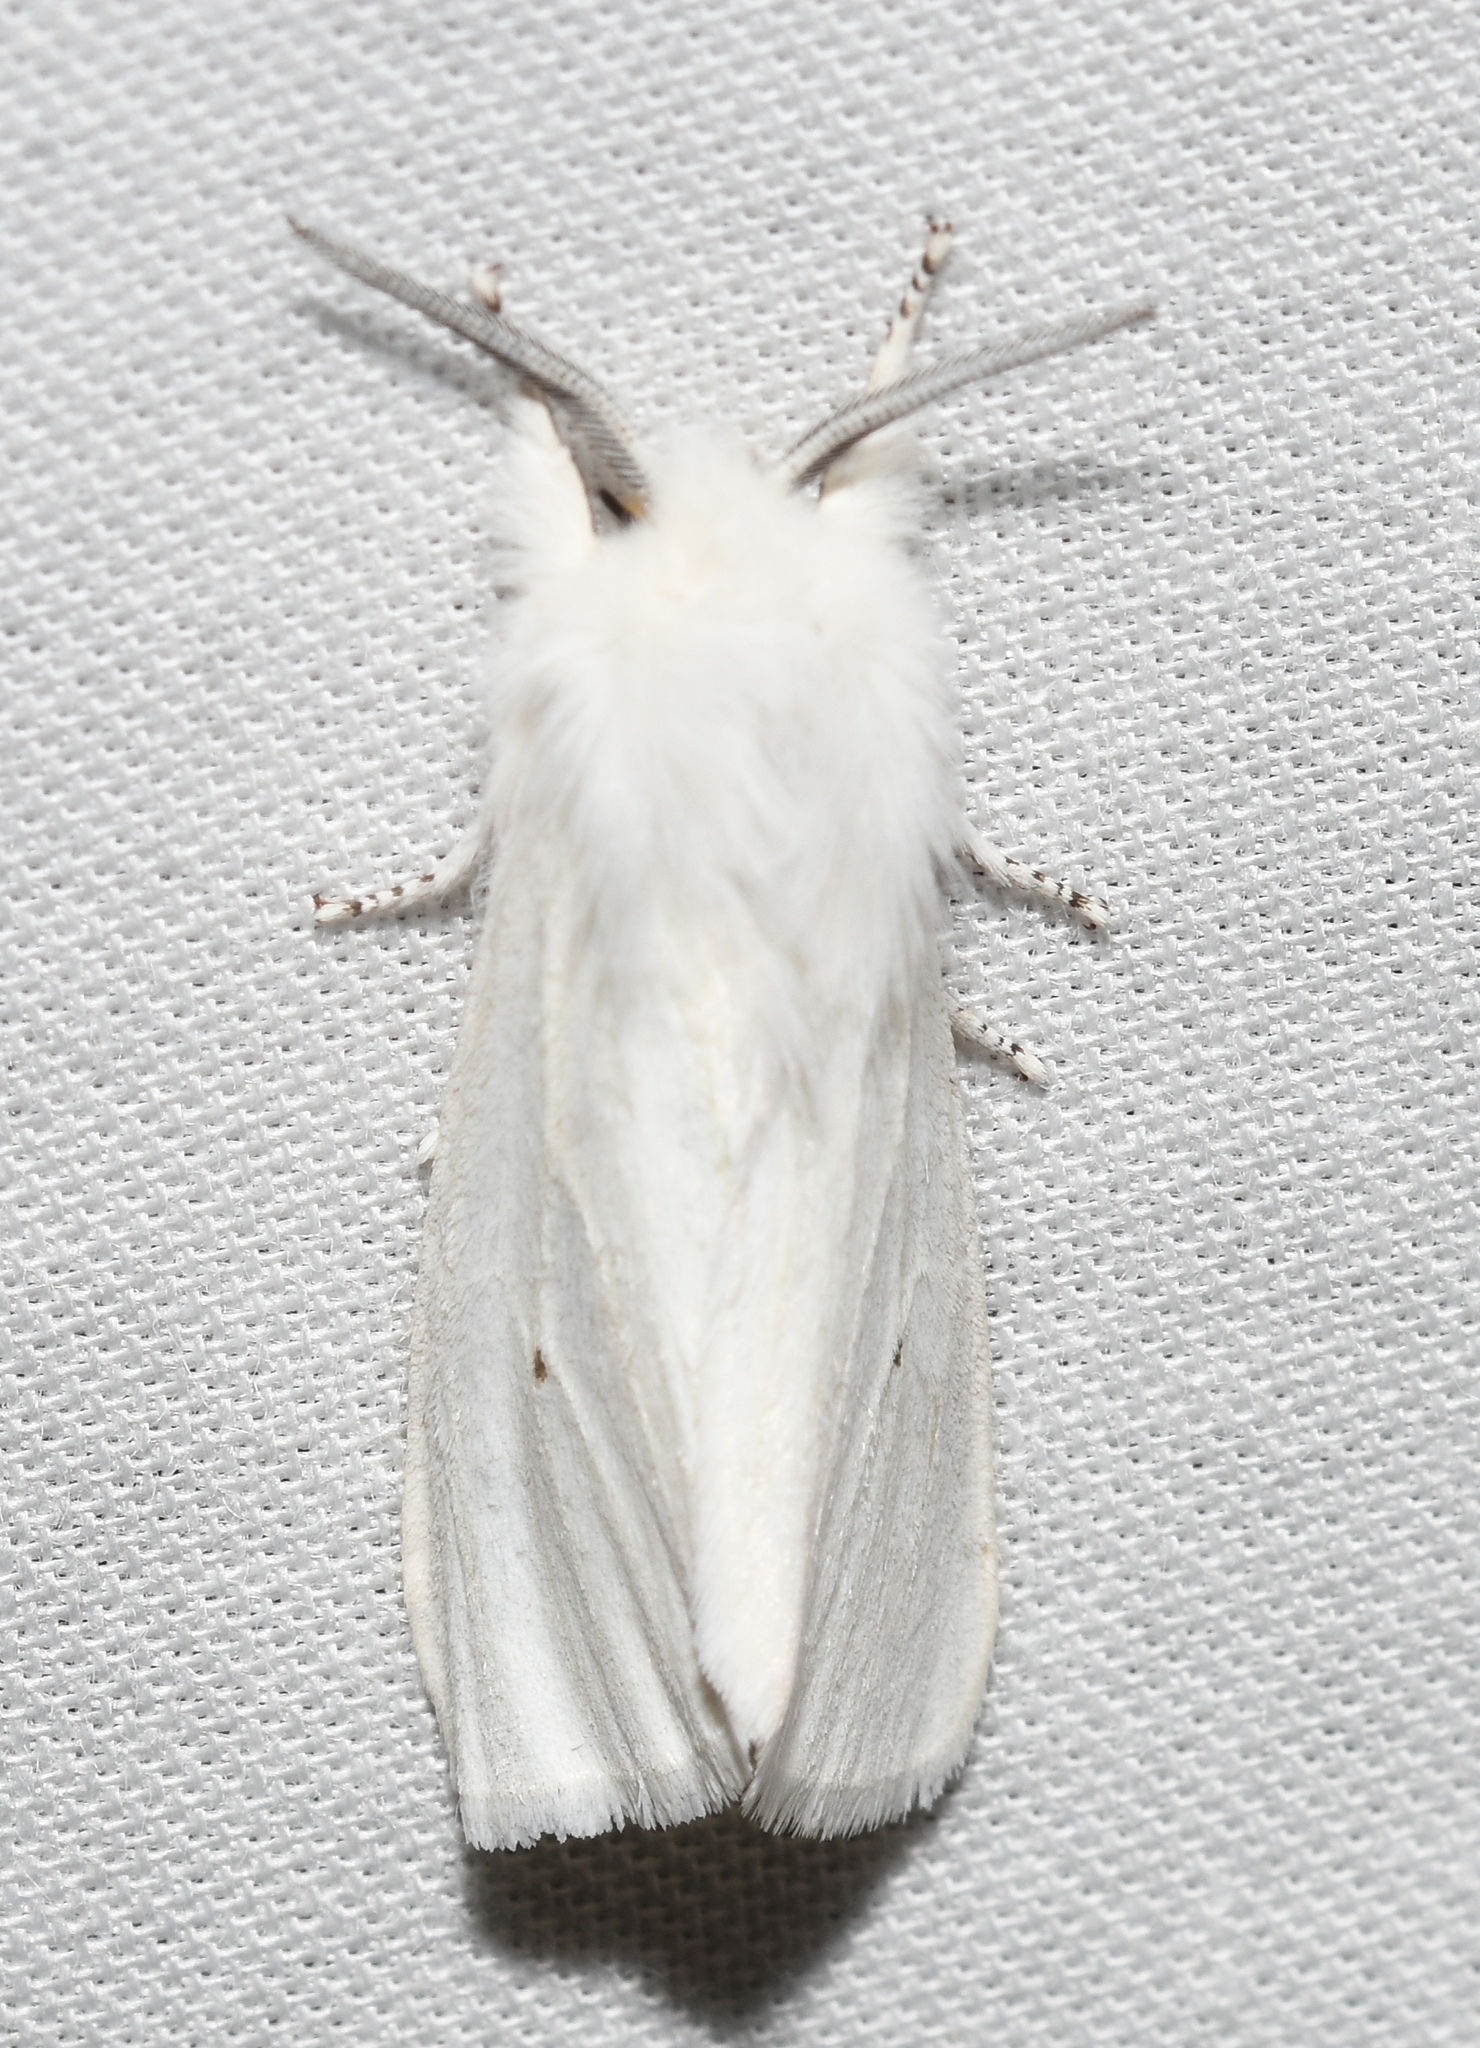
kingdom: Animalia
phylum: Arthropoda
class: Insecta
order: Lepidoptera
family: Erebidae
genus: Spilosoma
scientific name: Spilosoma virginica
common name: Virginia tiger moth
